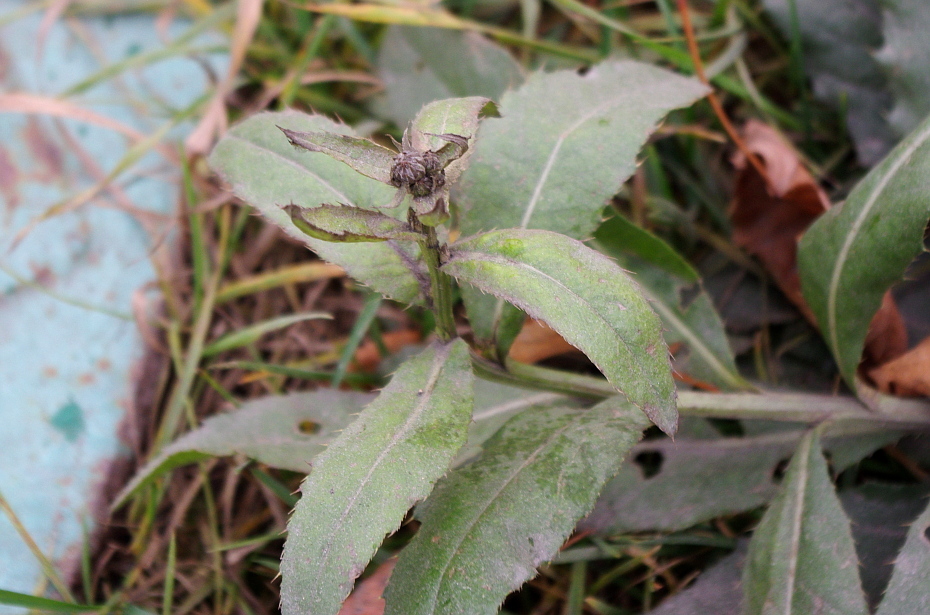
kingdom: Plantae
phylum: Tracheophyta
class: Magnoliopsida
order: Asterales
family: Asteraceae
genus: Cirsium
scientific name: Cirsium arvense
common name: Creeping thistle
